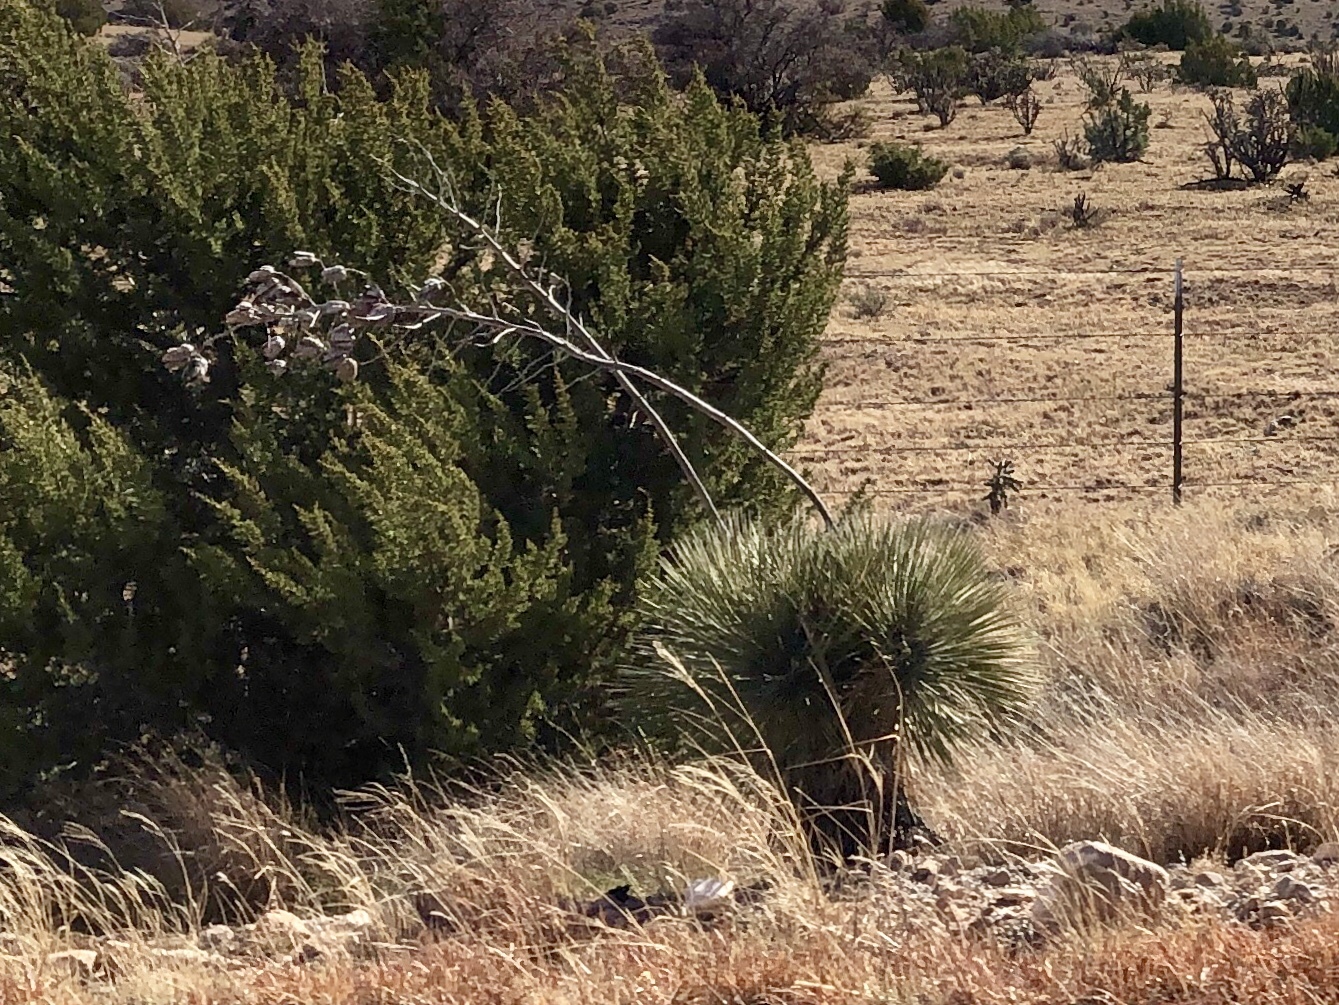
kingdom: Plantae
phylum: Tracheophyta
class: Liliopsida
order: Asparagales
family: Asparagaceae
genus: Yucca
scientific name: Yucca elata
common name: Palmella
